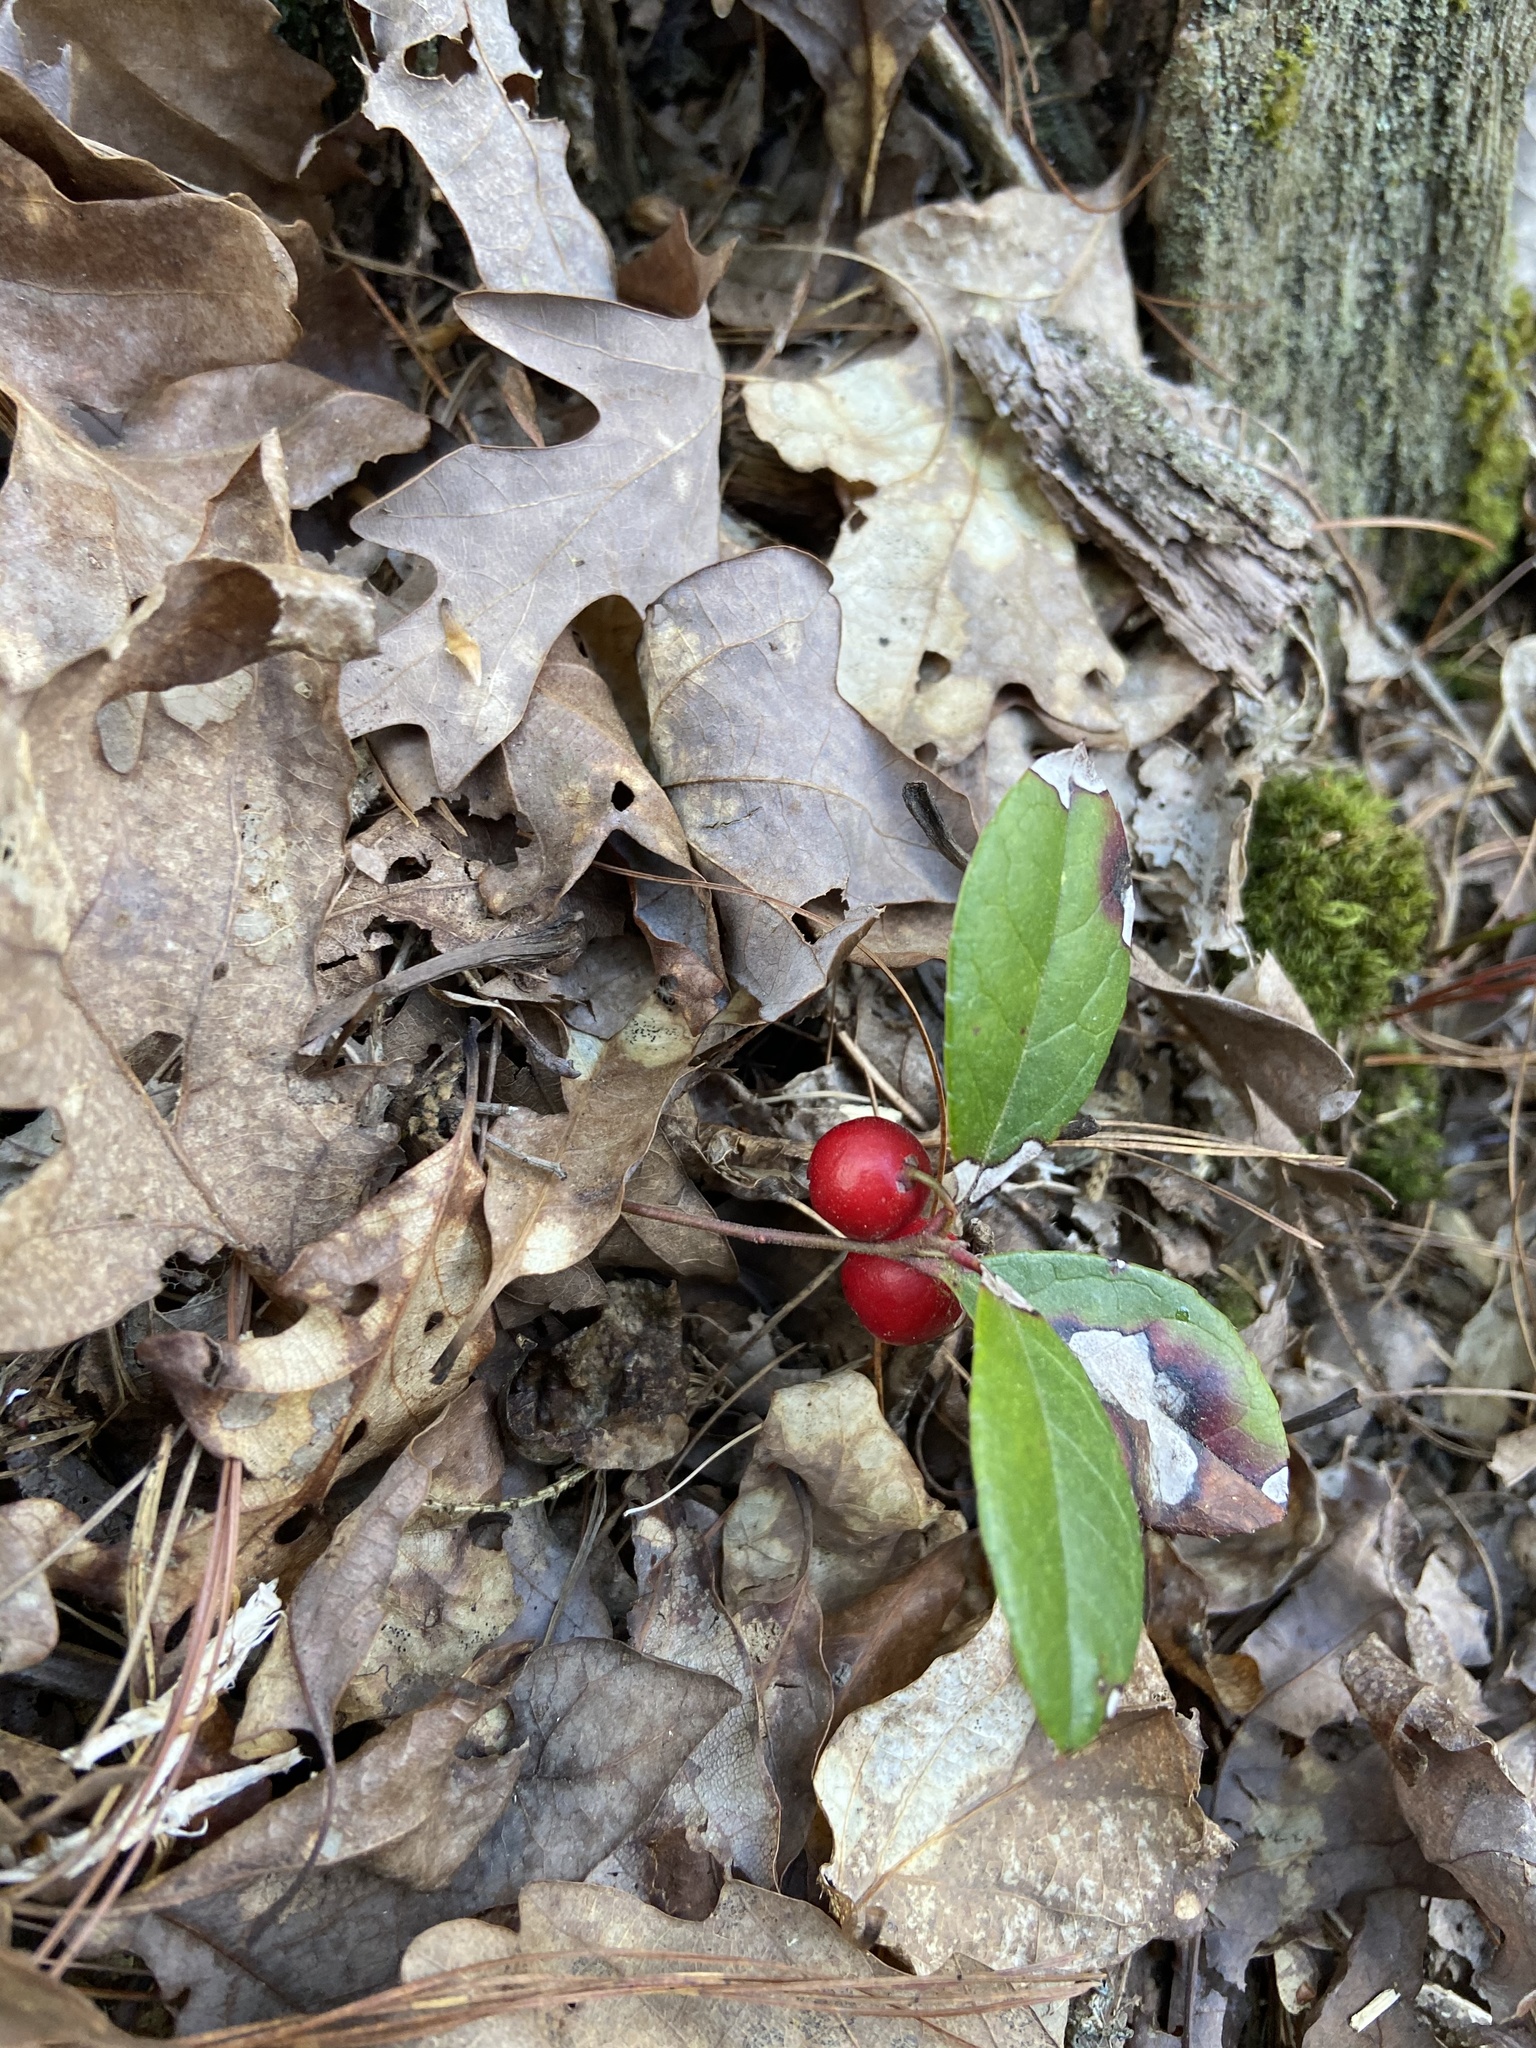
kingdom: Plantae
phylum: Tracheophyta
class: Magnoliopsida
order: Ericales
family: Ericaceae
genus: Gaultheria
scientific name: Gaultheria procumbens
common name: Checkerberry
